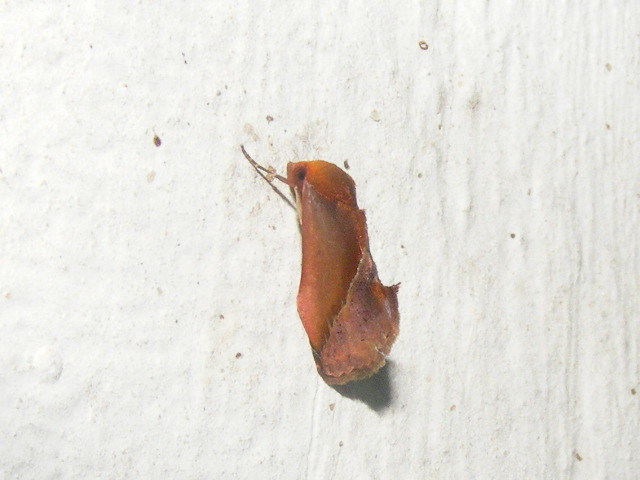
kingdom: Animalia
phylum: Arthropoda
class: Insecta
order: Lepidoptera
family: Erebidae
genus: Arsacia
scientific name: Arsacia rectalis
